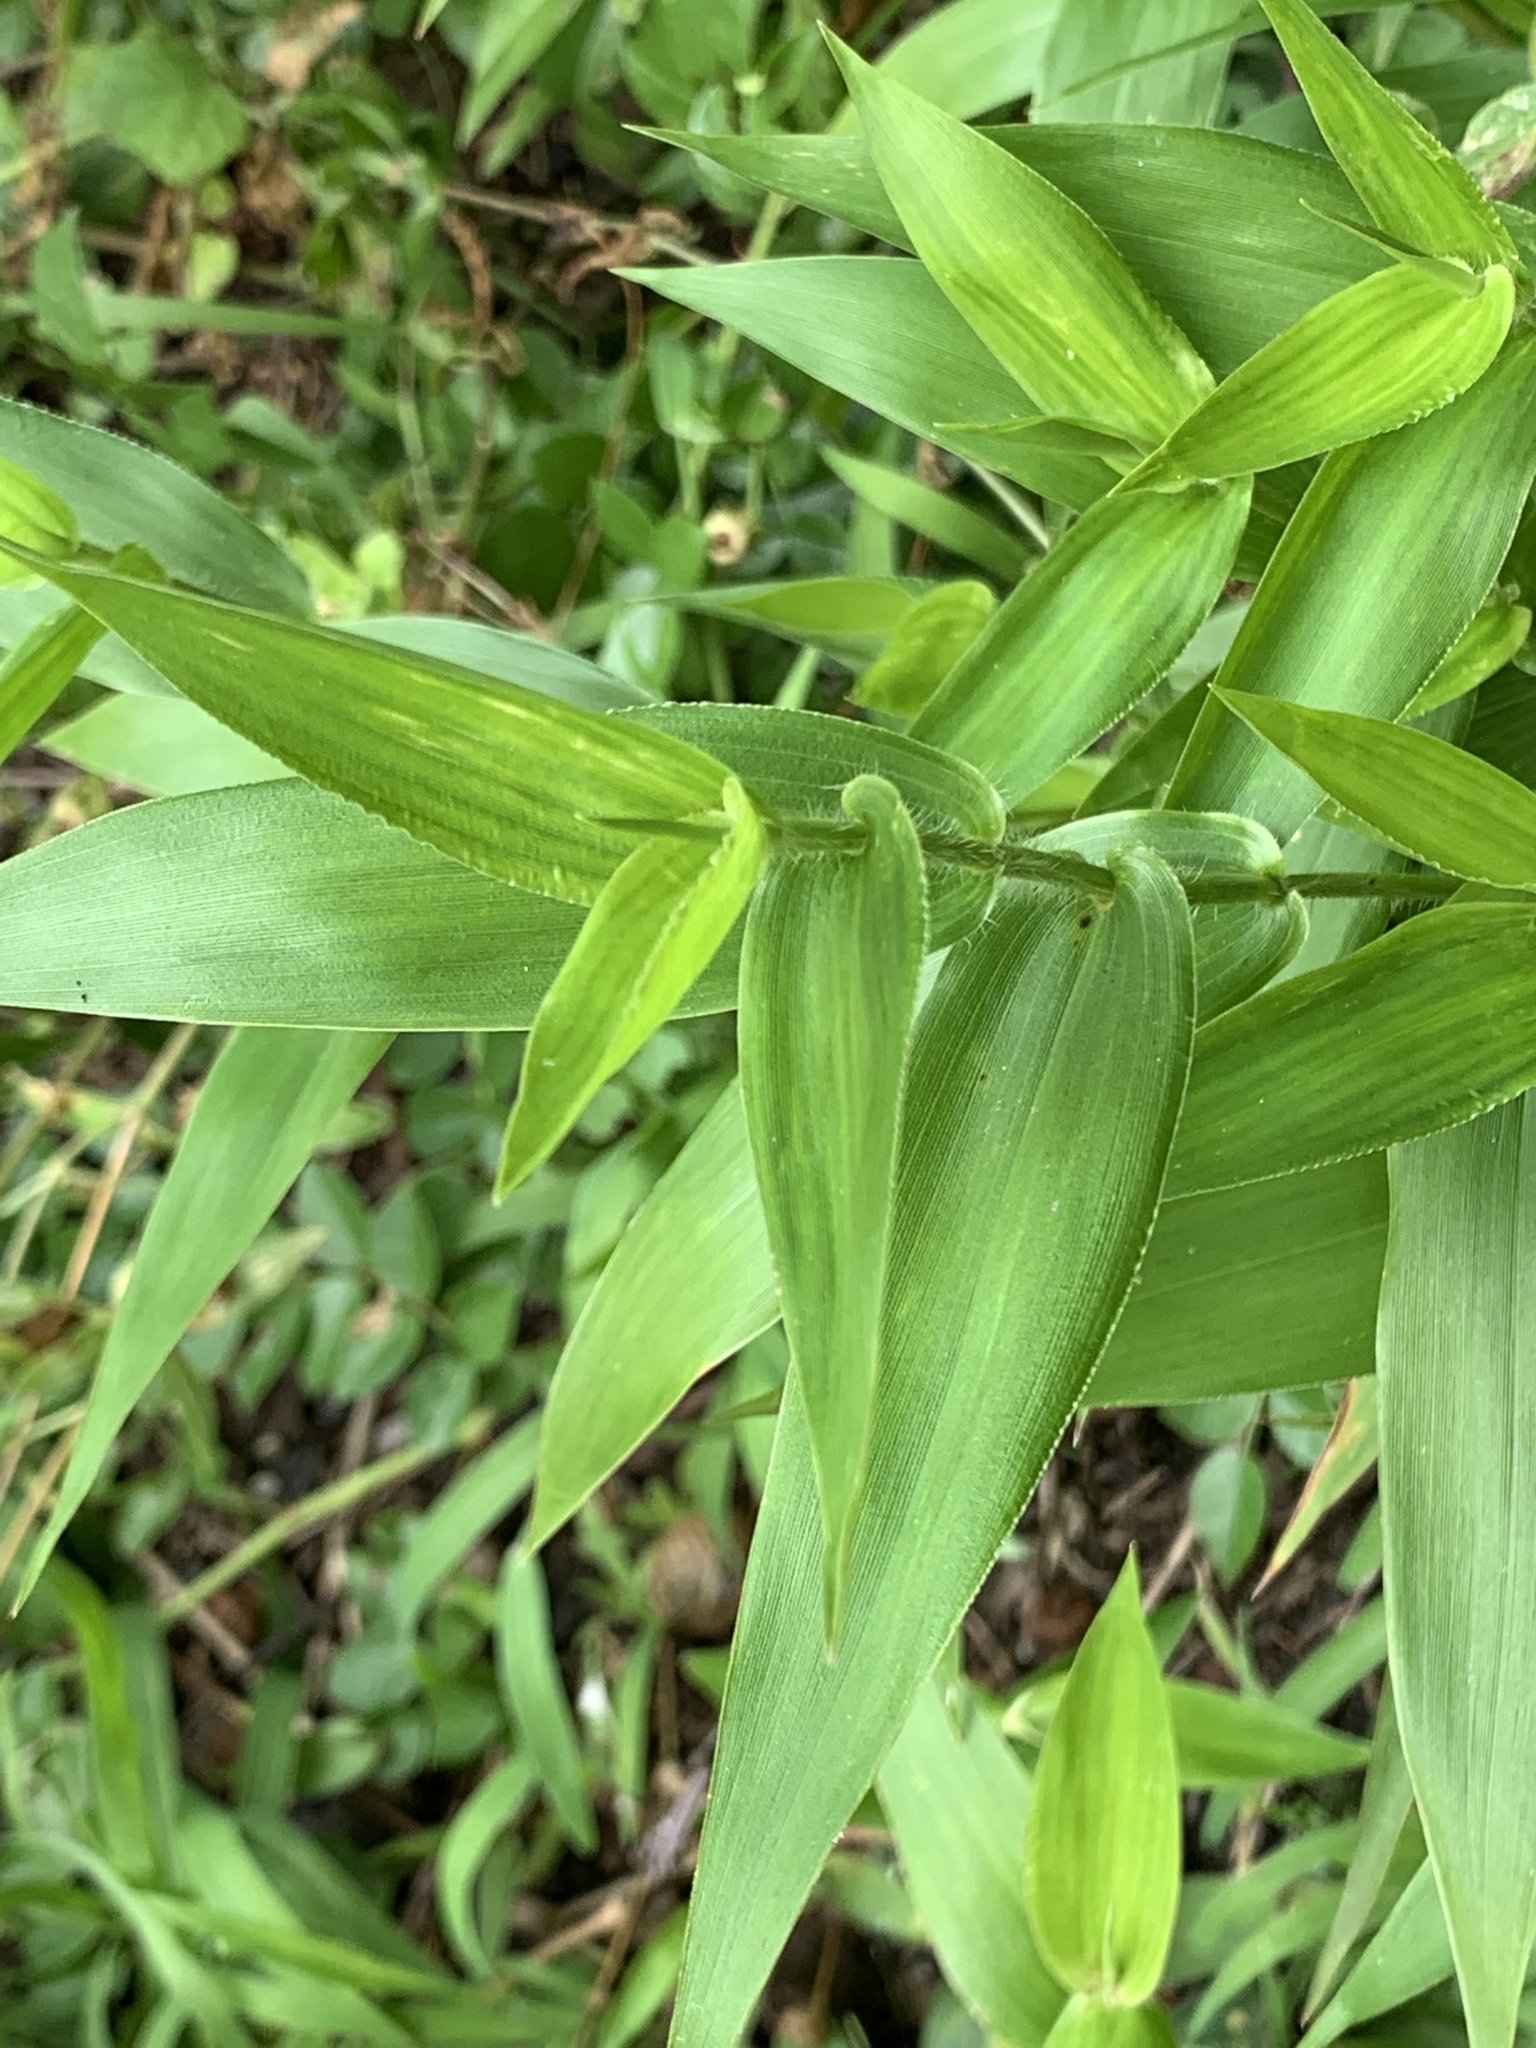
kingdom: Plantae
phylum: Tracheophyta
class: Liliopsida
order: Poales
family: Poaceae
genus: Dichanthelium
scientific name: Dichanthelium clandestinum
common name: Deer-tongue grass
